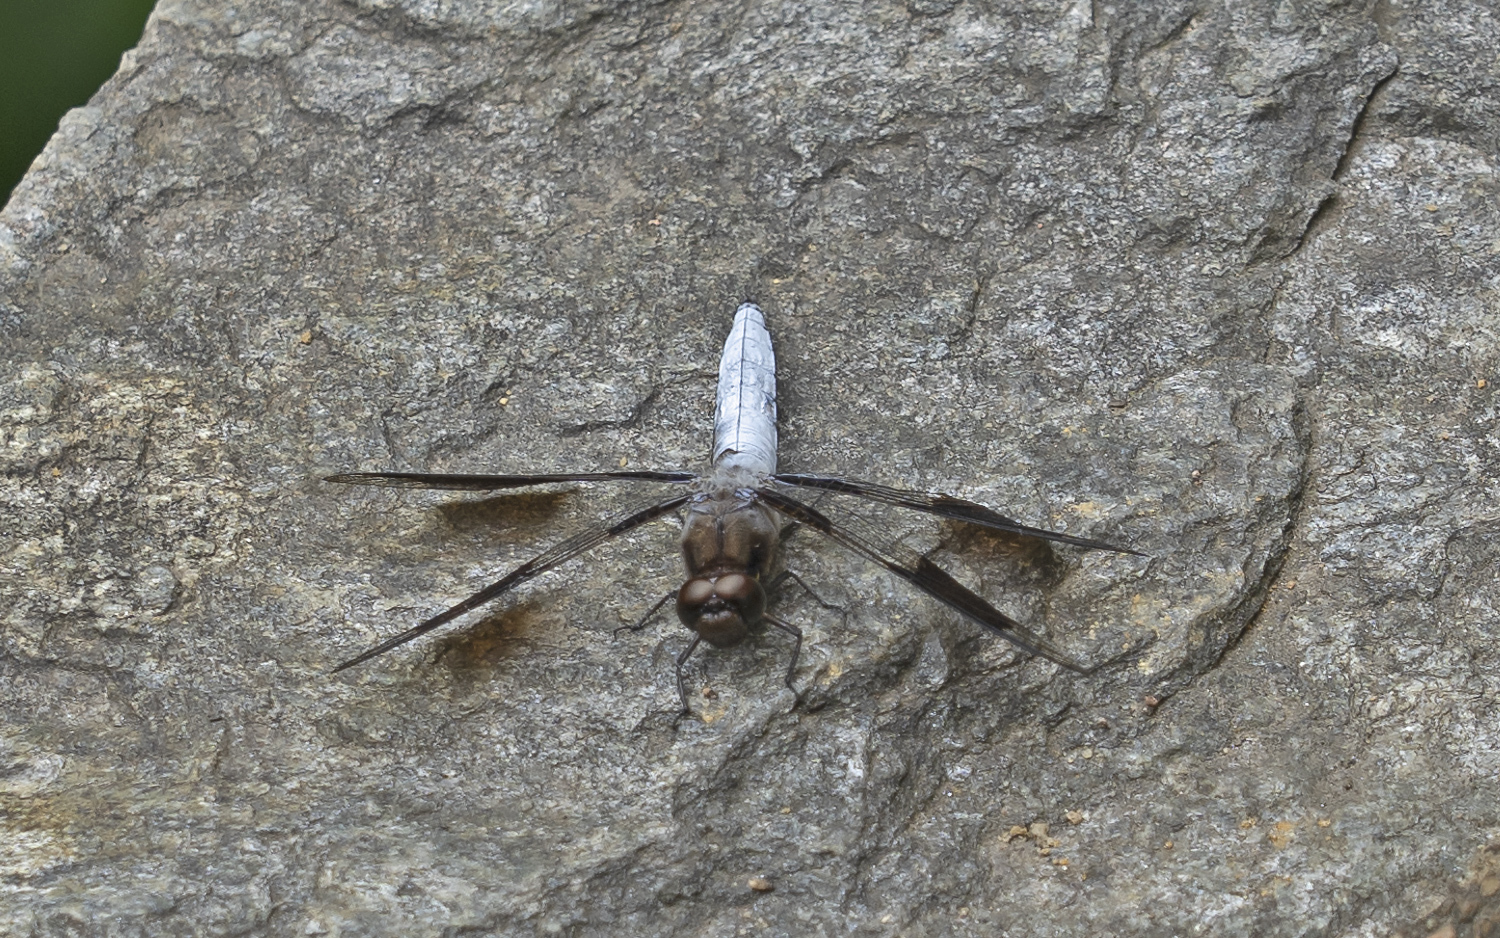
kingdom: Animalia
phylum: Arthropoda
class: Insecta
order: Odonata
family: Libellulidae
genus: Plathemis
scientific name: Plathemis lydia
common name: Common whitetail
